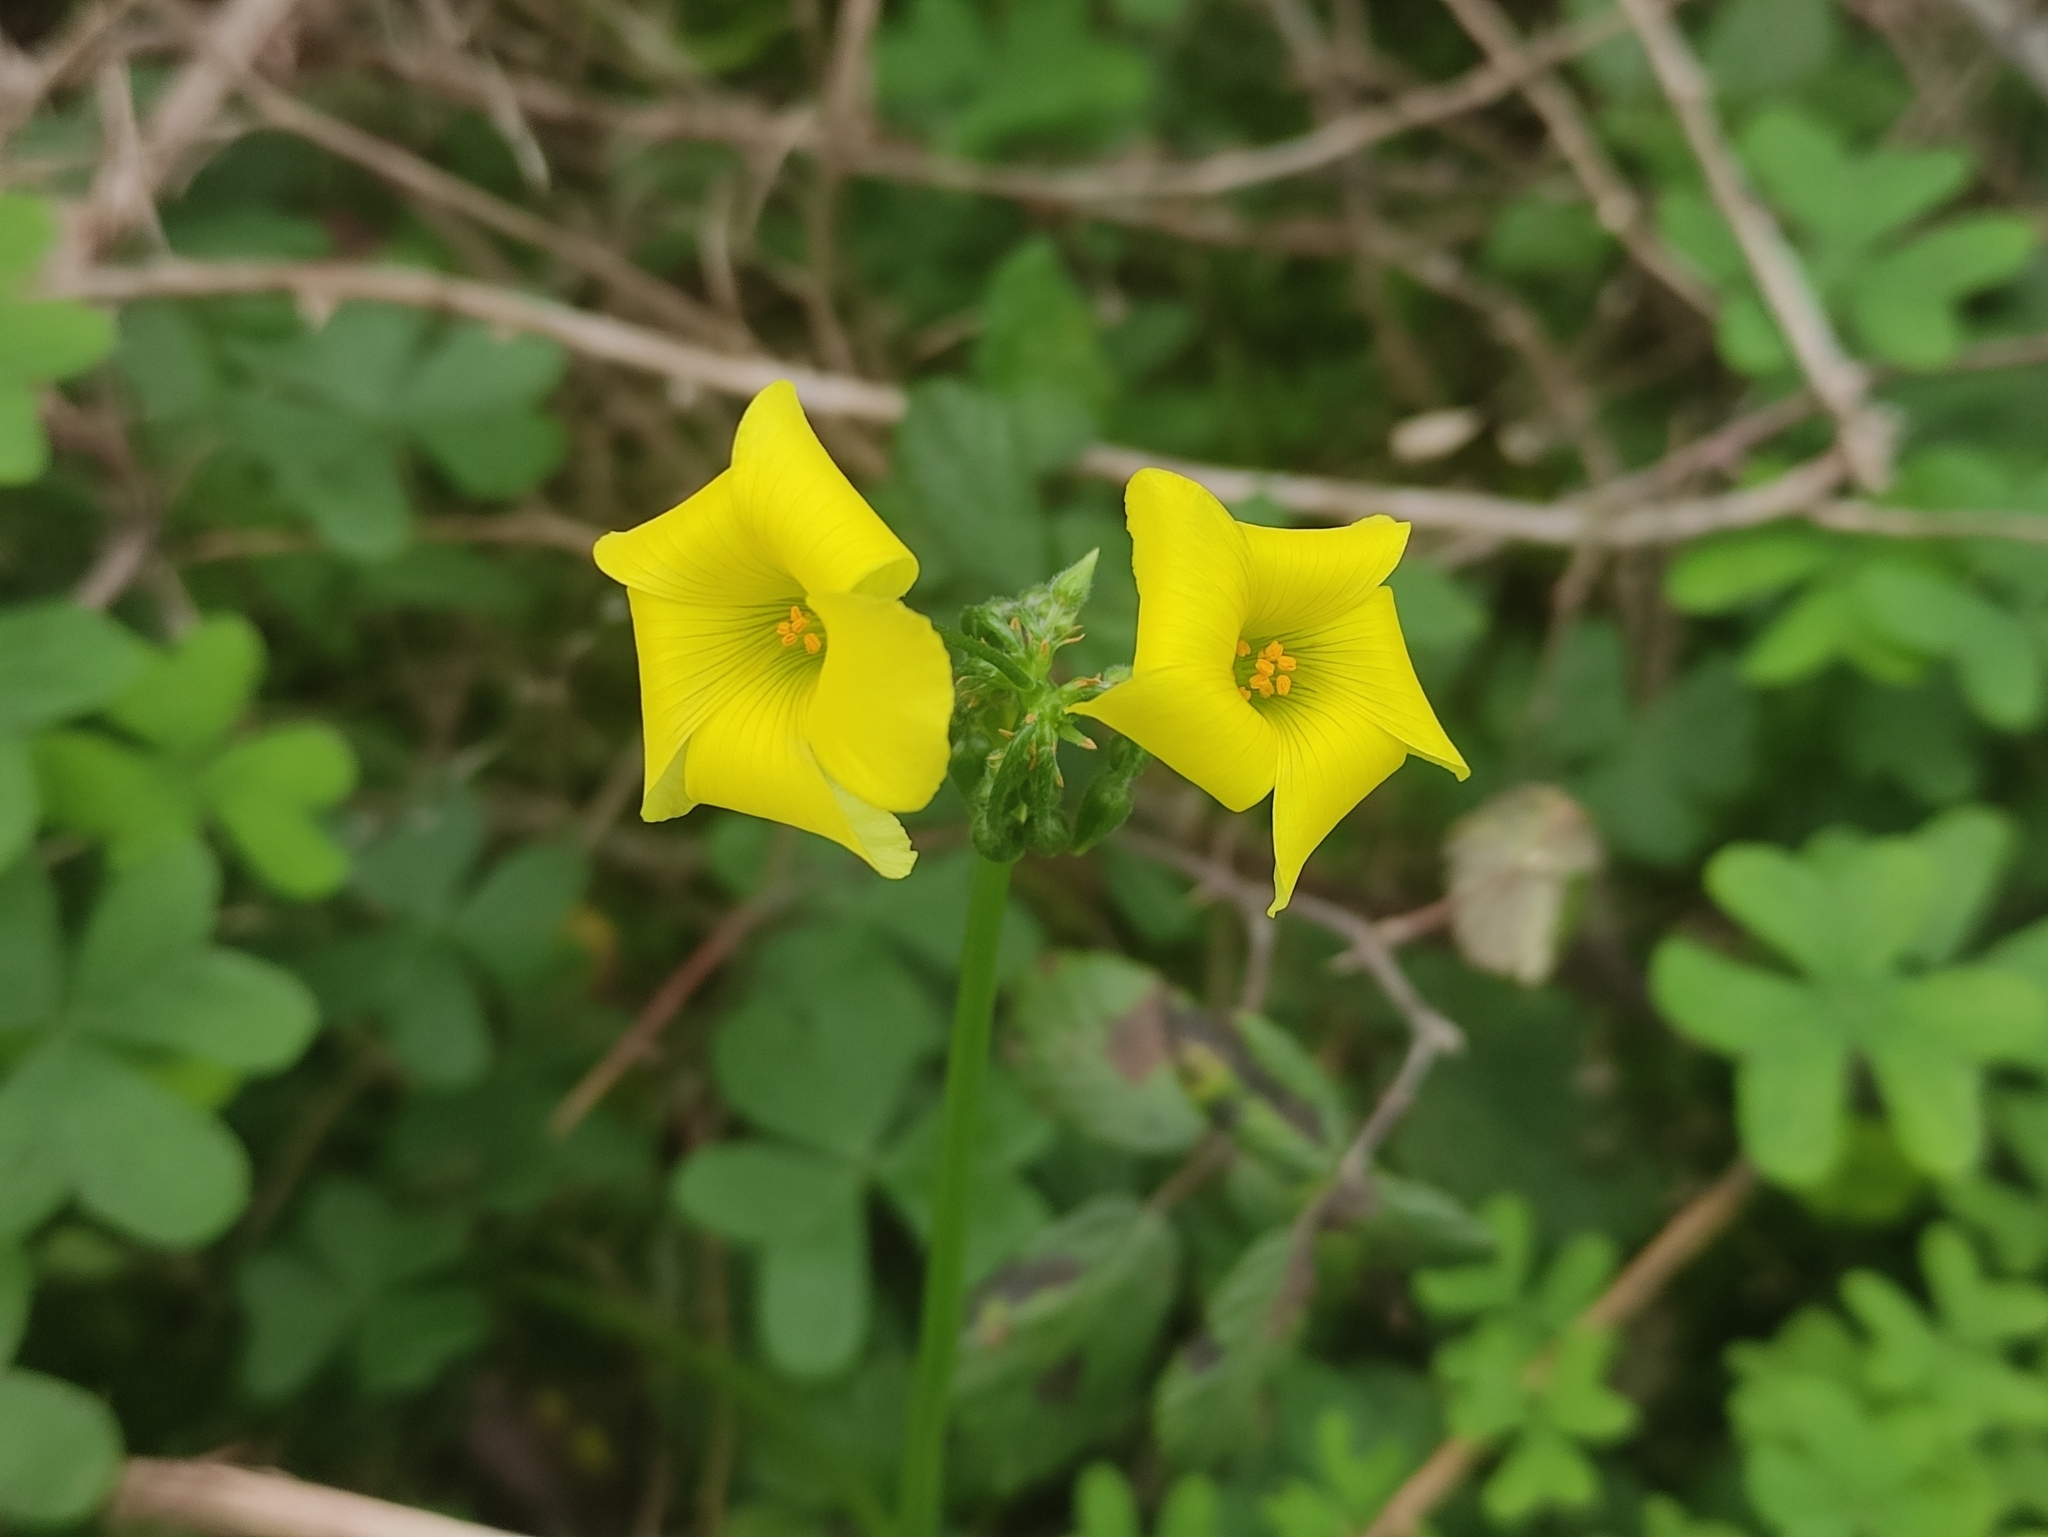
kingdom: Plantae
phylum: Tracheophyta
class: Magnoliopsida
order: Oxalidales
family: Oxalidaceae
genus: Oxalis
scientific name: Oxalis pes-caprae
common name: Bermuda-buttercup
